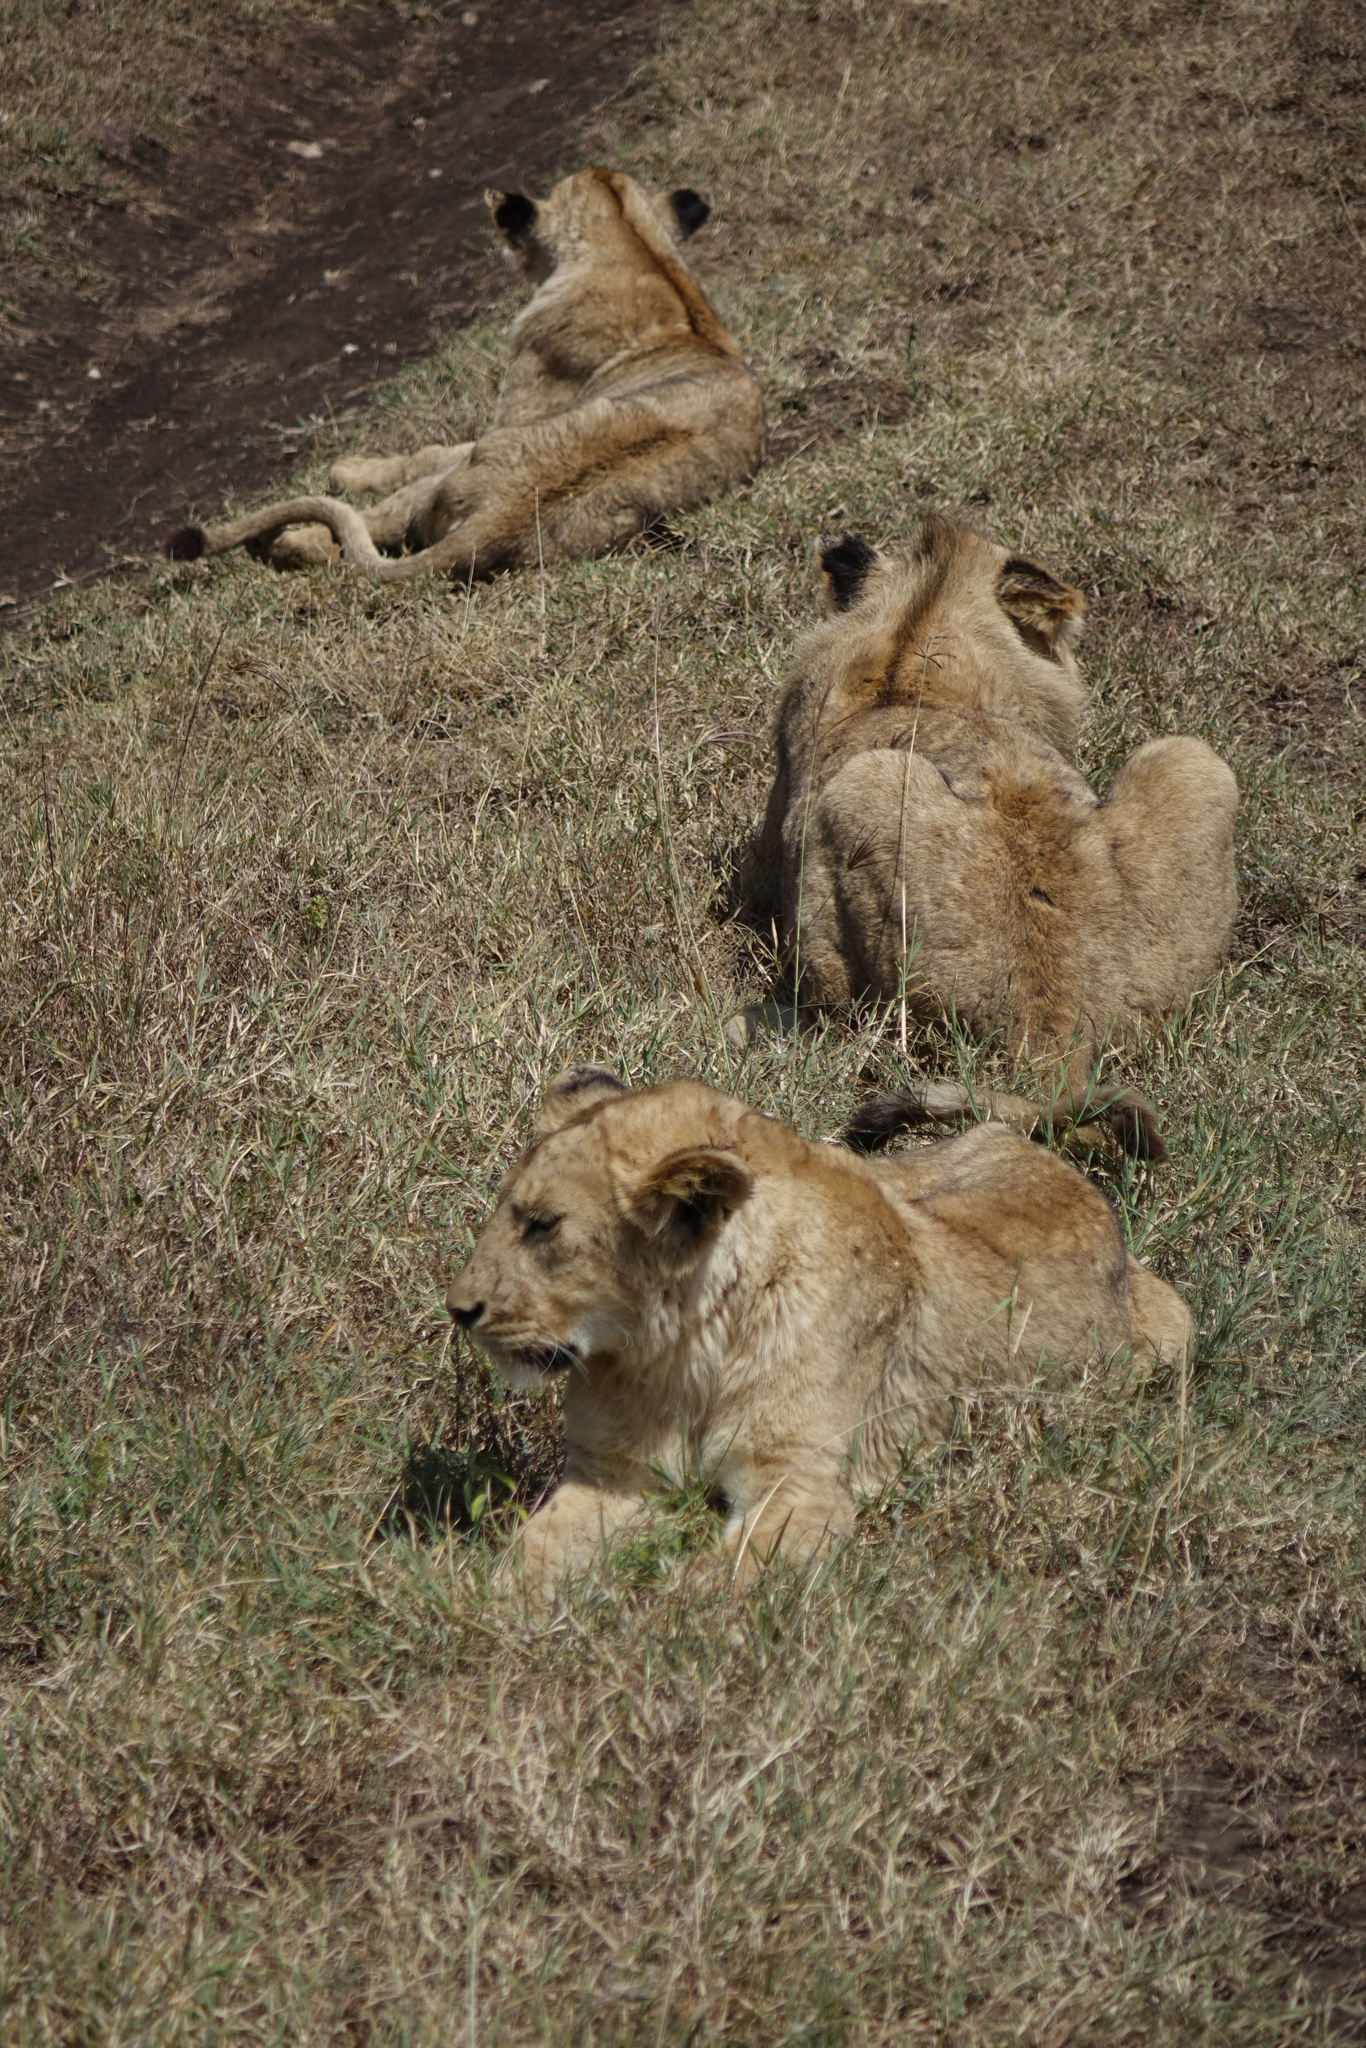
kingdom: Animalia
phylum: Chordata
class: Mammalia
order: Carnivora
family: Felidae
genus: Panthera
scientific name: Panthera leo
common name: Lion
